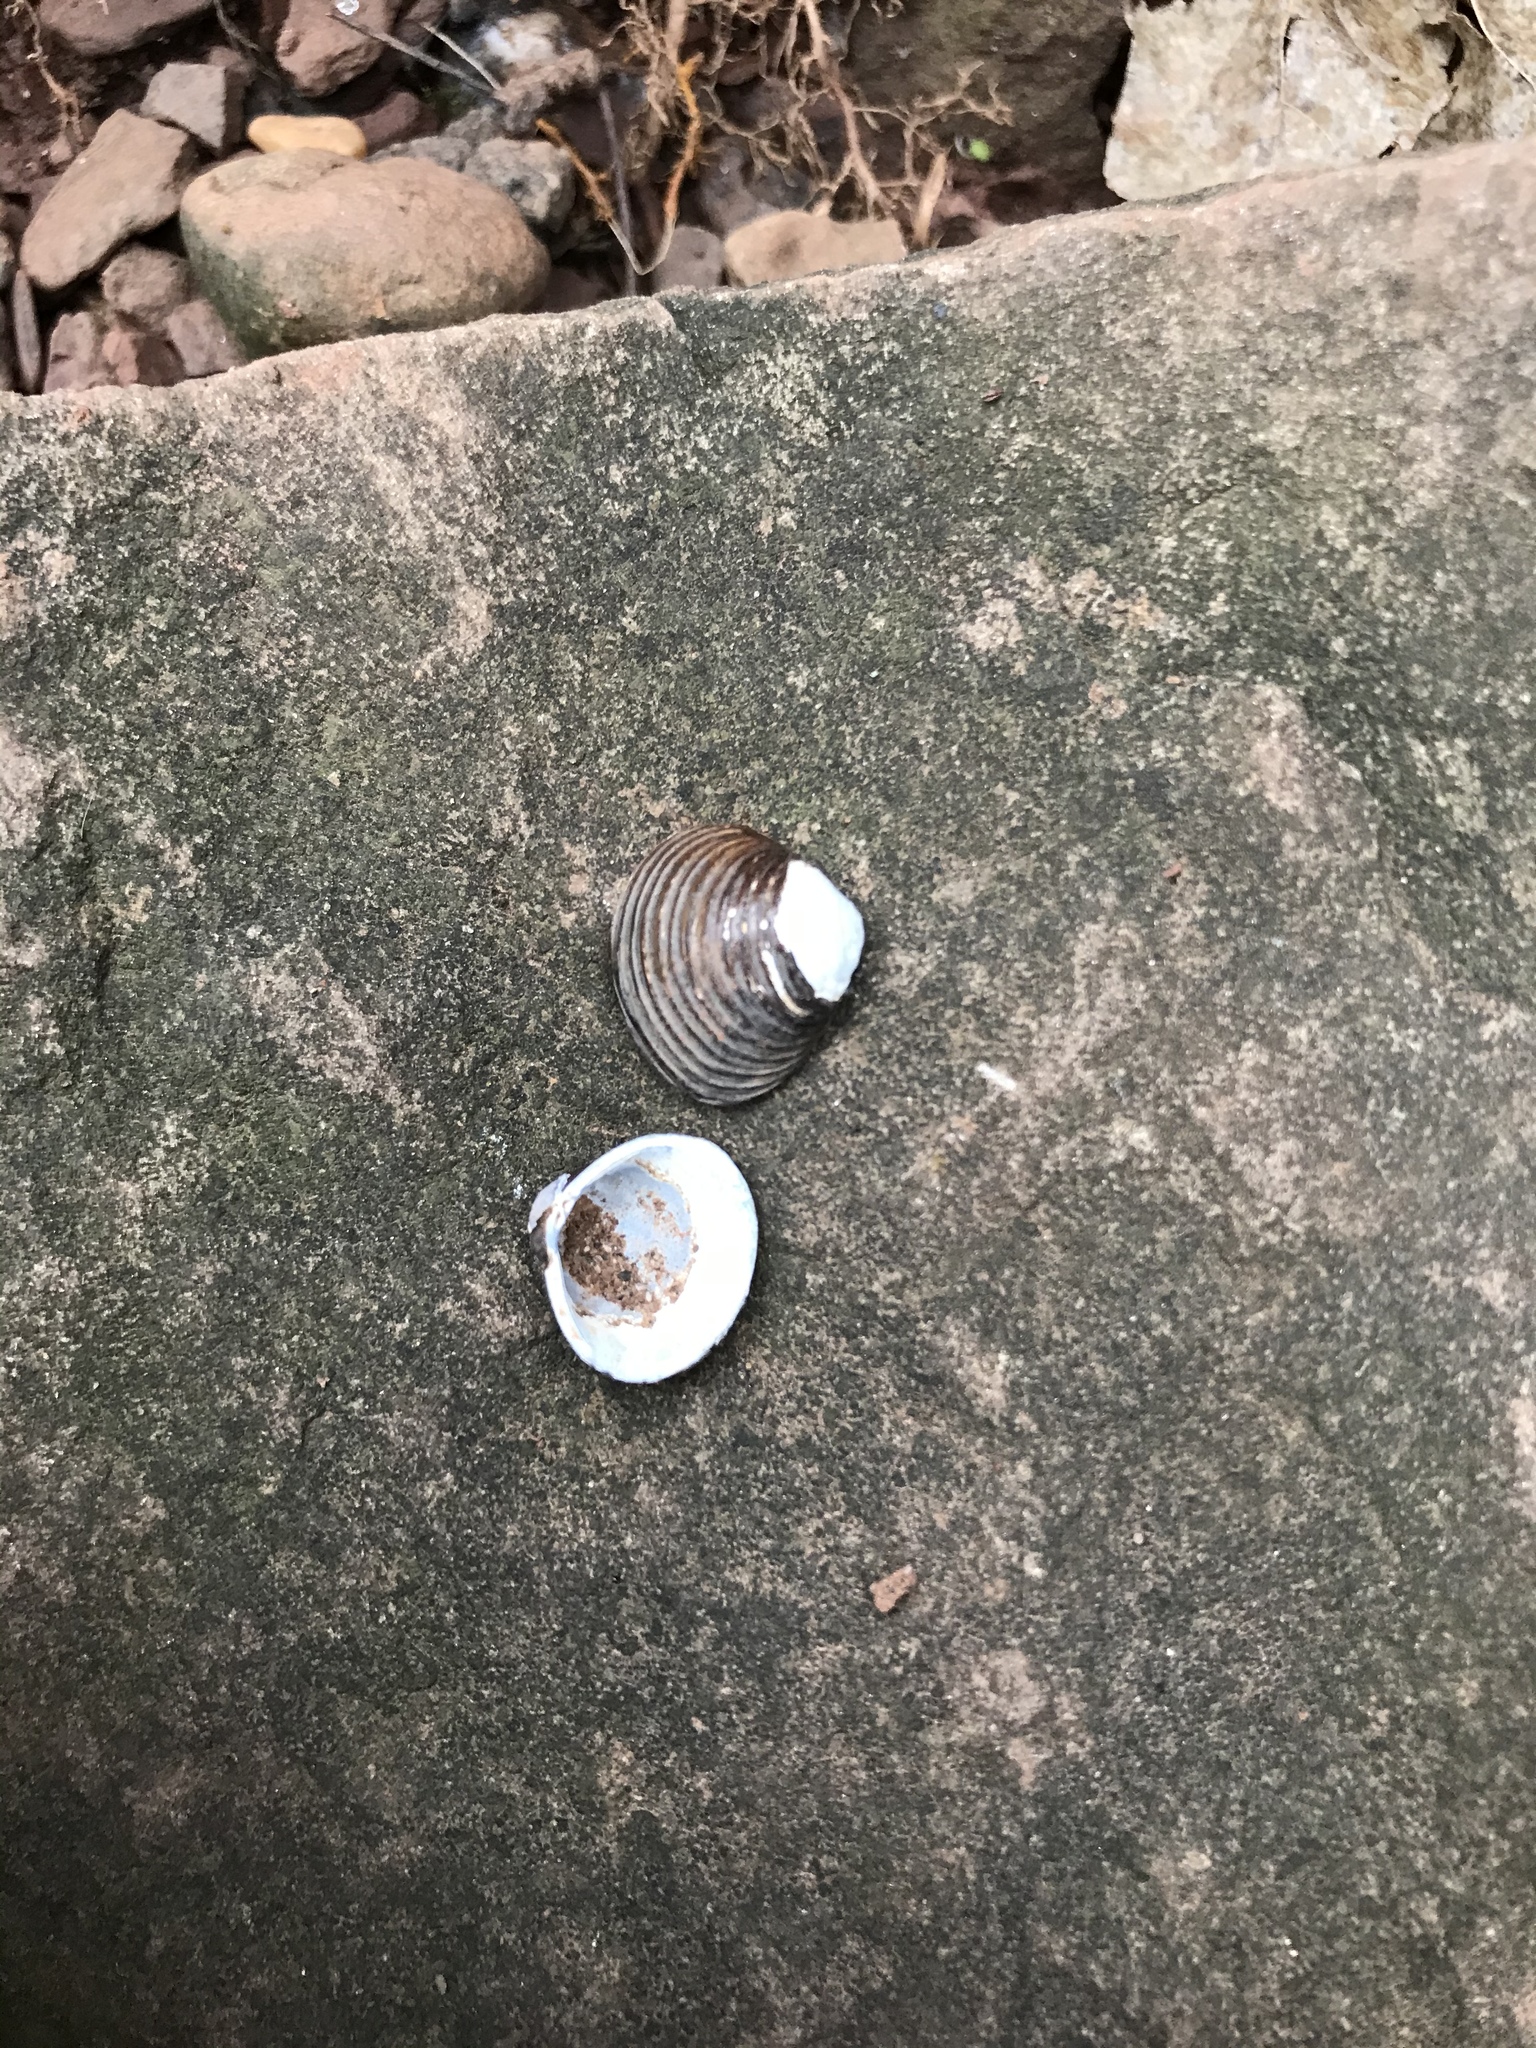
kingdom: Animalia
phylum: Mollusca
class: Bivalvia
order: Venerida
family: Cyrenidae
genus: Corbicula
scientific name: Corbicula fluminea
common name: Asian clam
